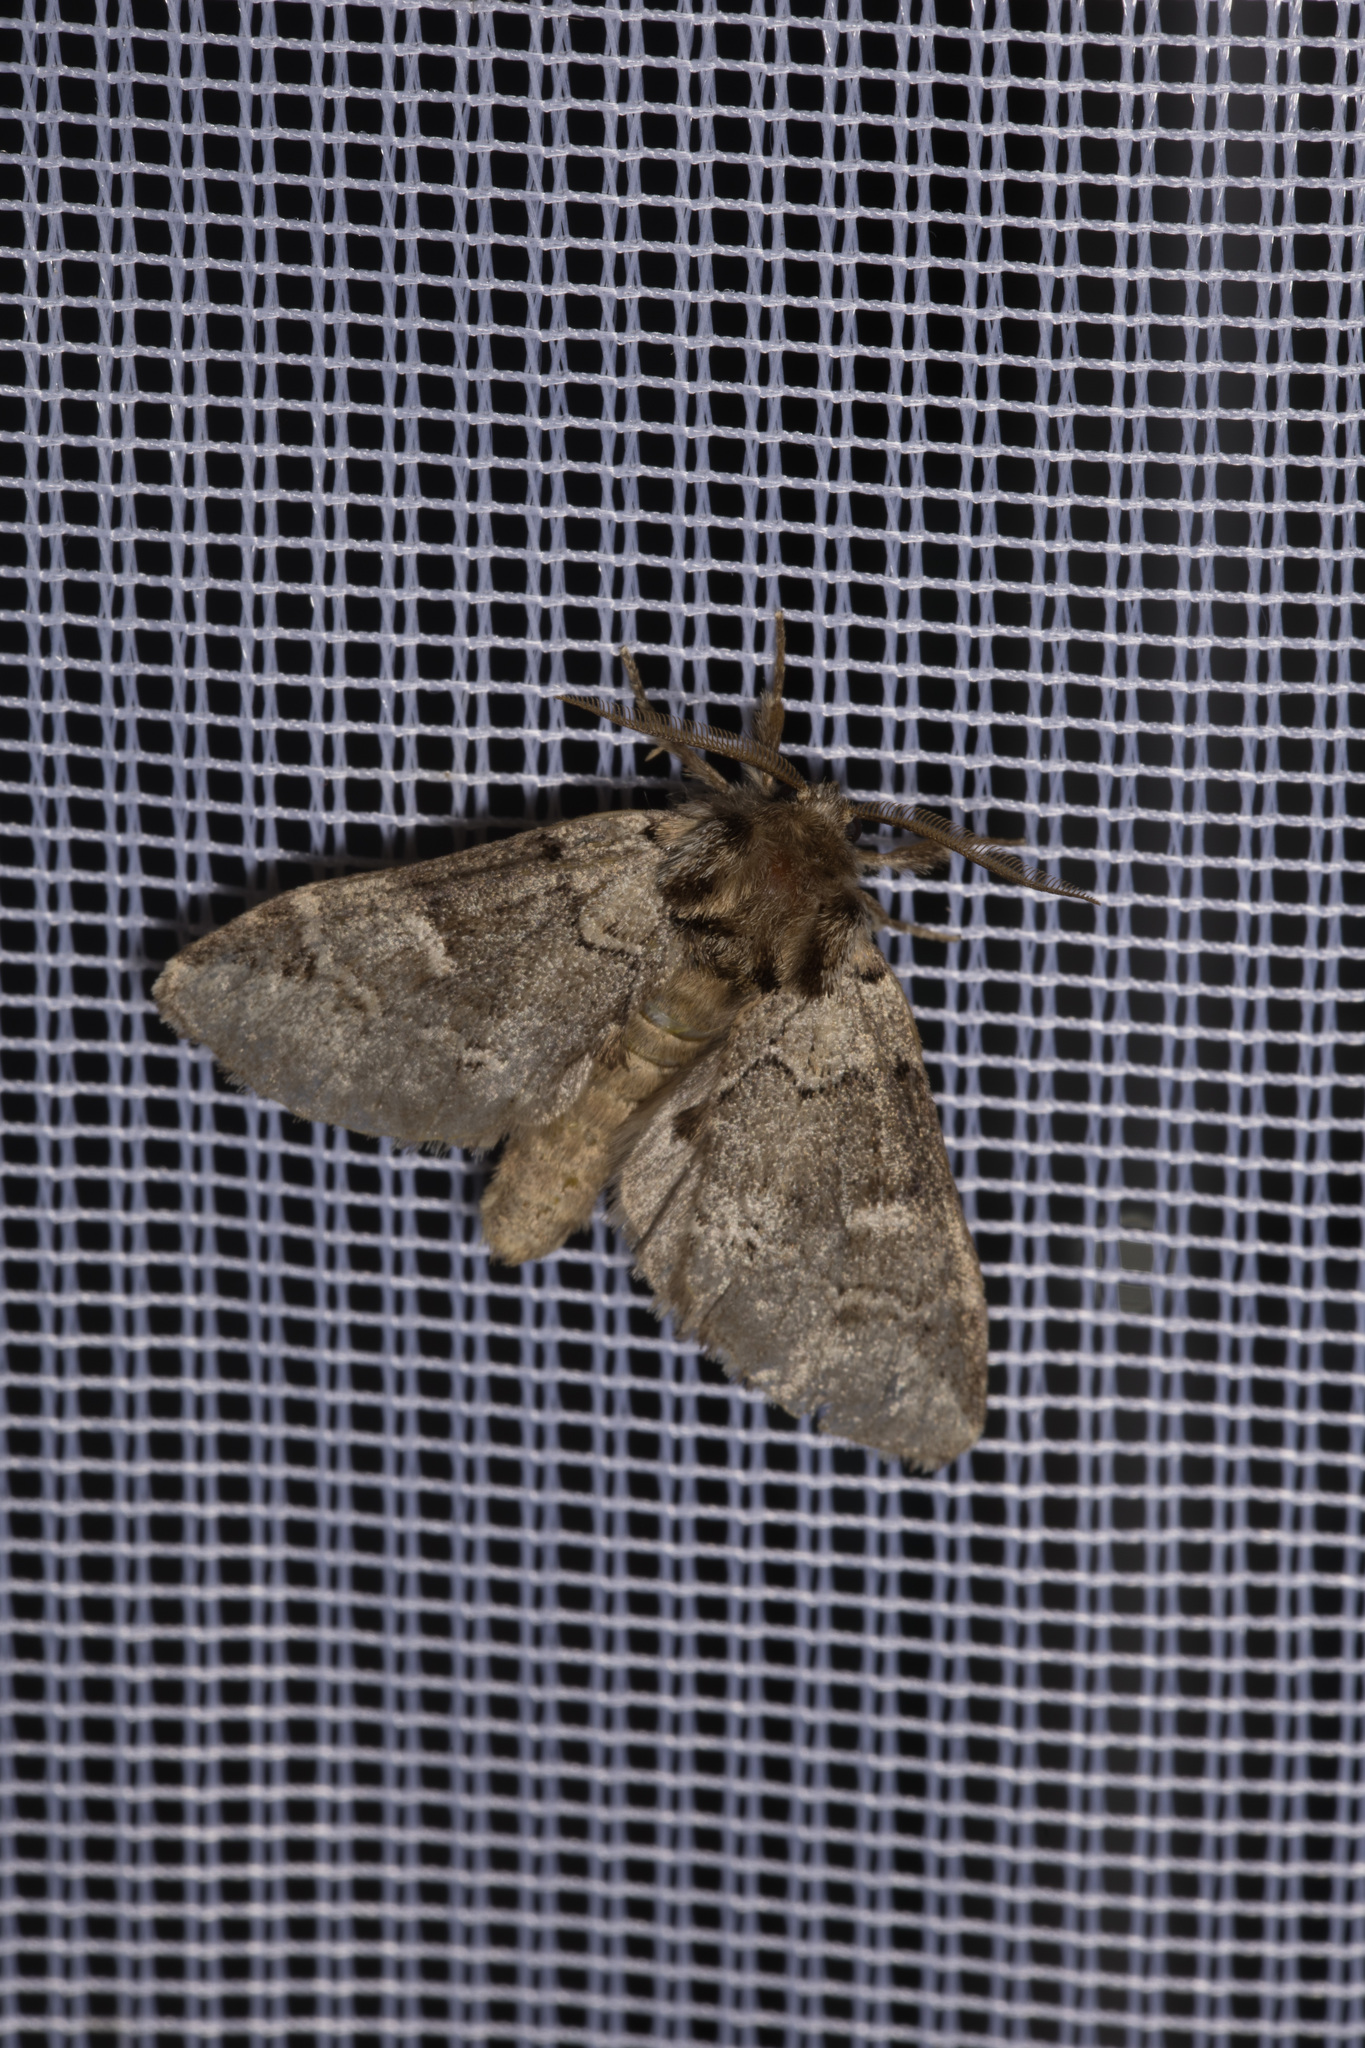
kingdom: Animalia
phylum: Arthropoda
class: Insecta
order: Lepidoptera
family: Notodontidae
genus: Drymonia
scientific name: Drymonia obliterata
